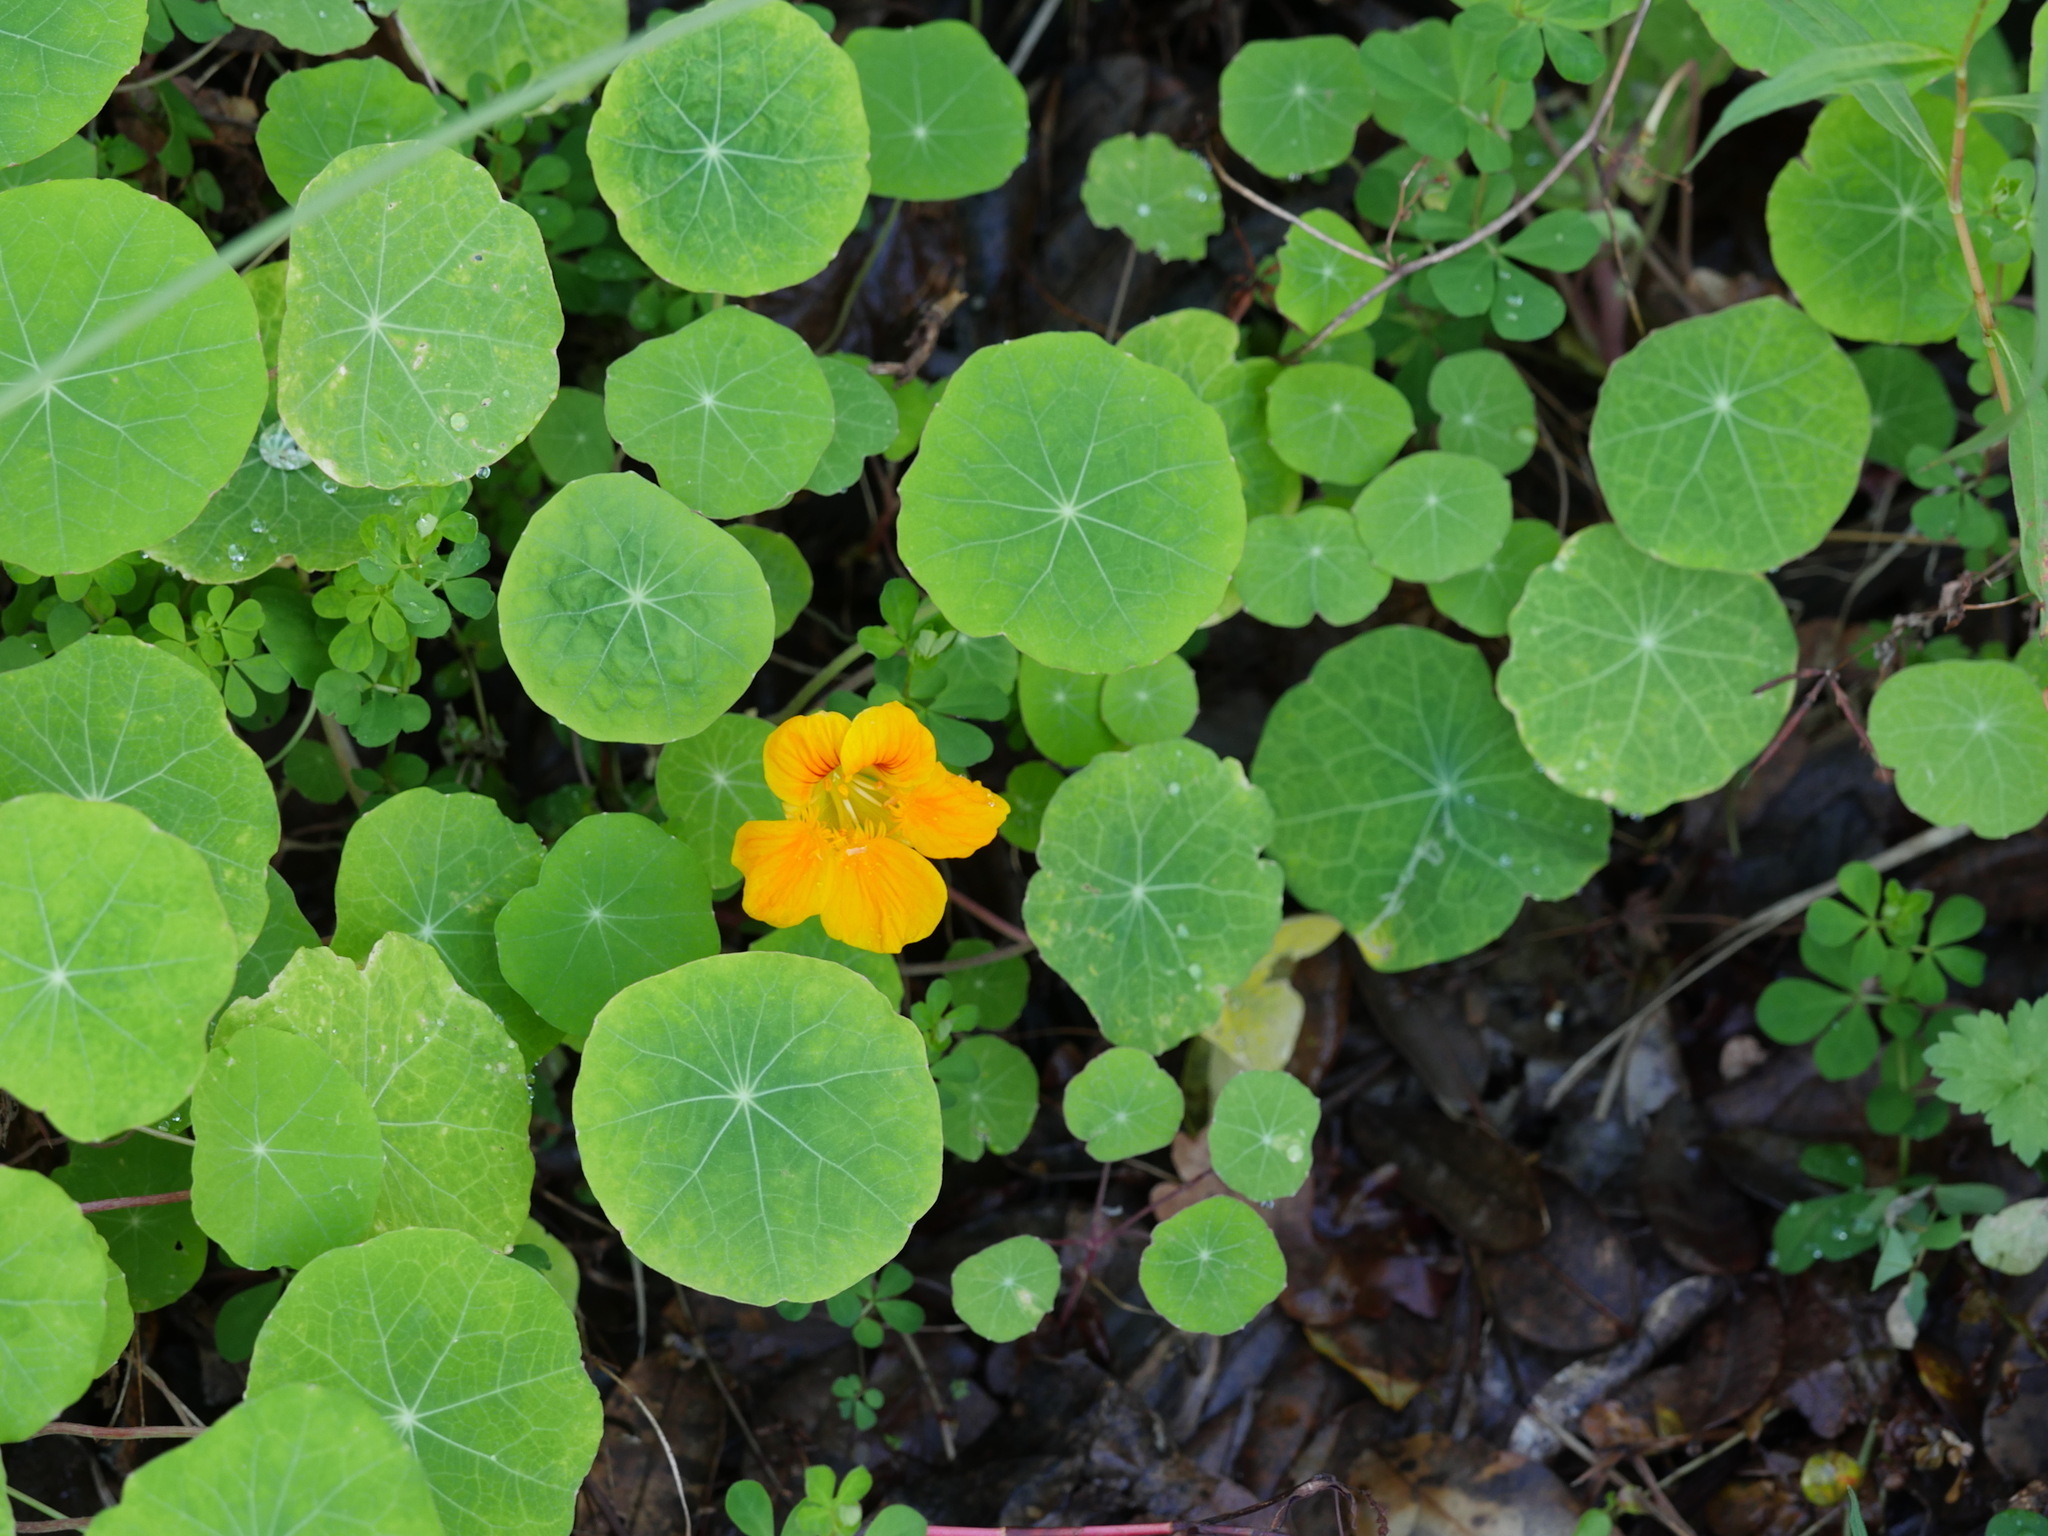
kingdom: Plantae
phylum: Tracheophyta
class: Magnoliopsida
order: Brassicales
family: Tropaeolaceae
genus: Tropaeolum
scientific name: Tropaeolum majus
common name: Nasturtium
